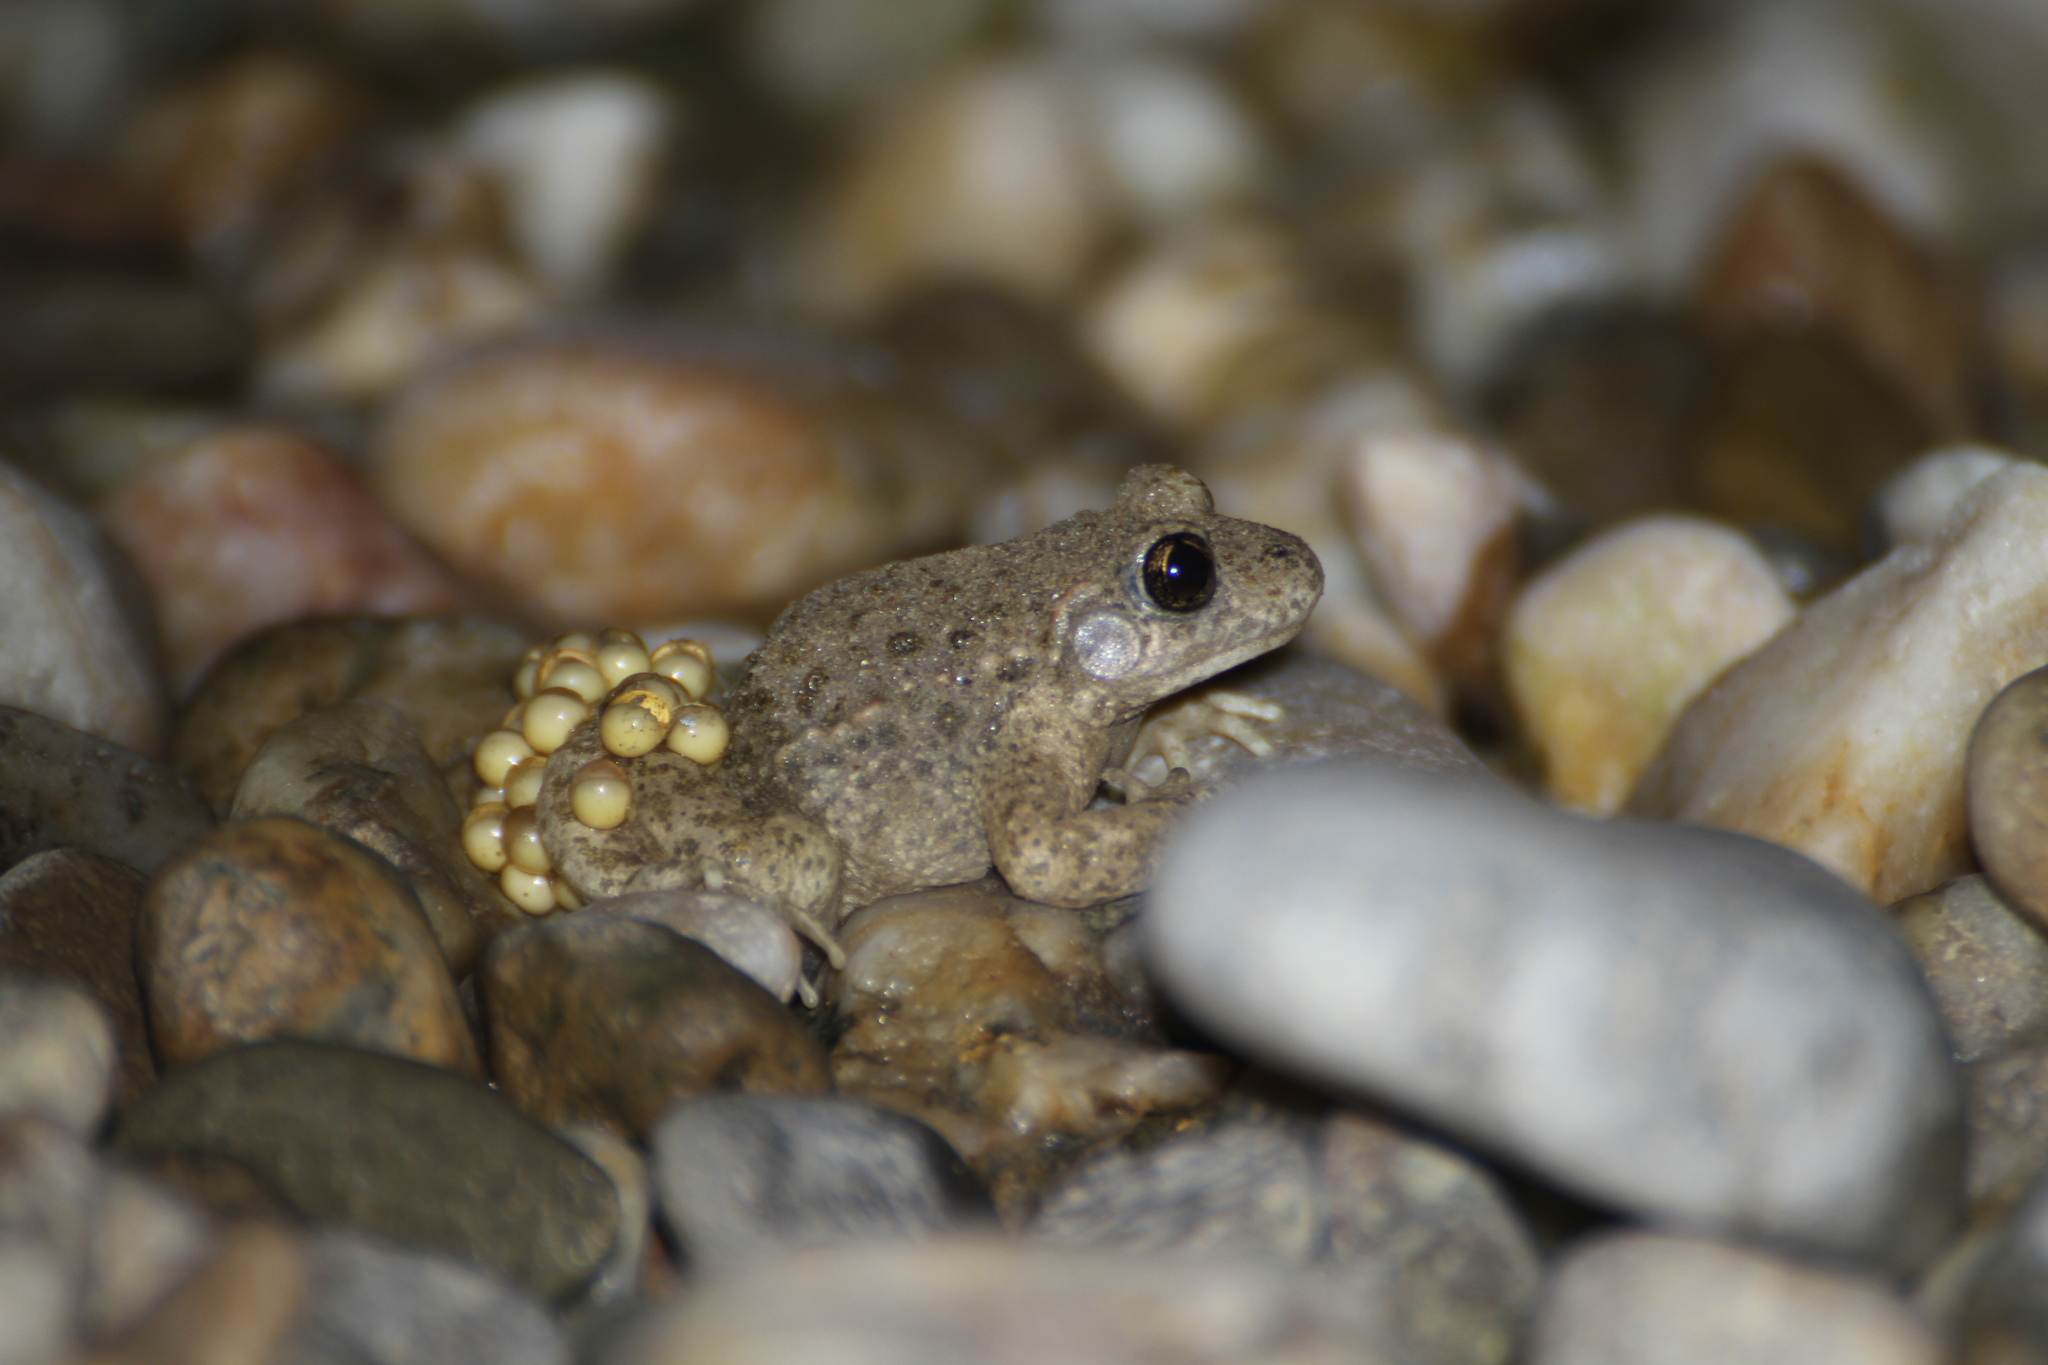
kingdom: Animalia
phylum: Chordata
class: Amphibia
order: Anura
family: Alytidae
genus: Alytes
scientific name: Alytes obstetricans
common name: Midwife toad
